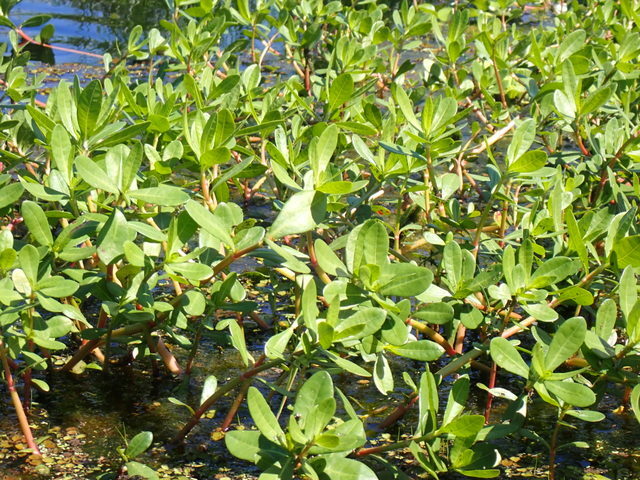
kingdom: Plantae
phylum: Tracheophyta
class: Magnoliopsida
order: Caryophyllales
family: Amaranthaceae
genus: Alternanthera
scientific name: Alternanthera philoxeroides
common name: Alligatorweed
